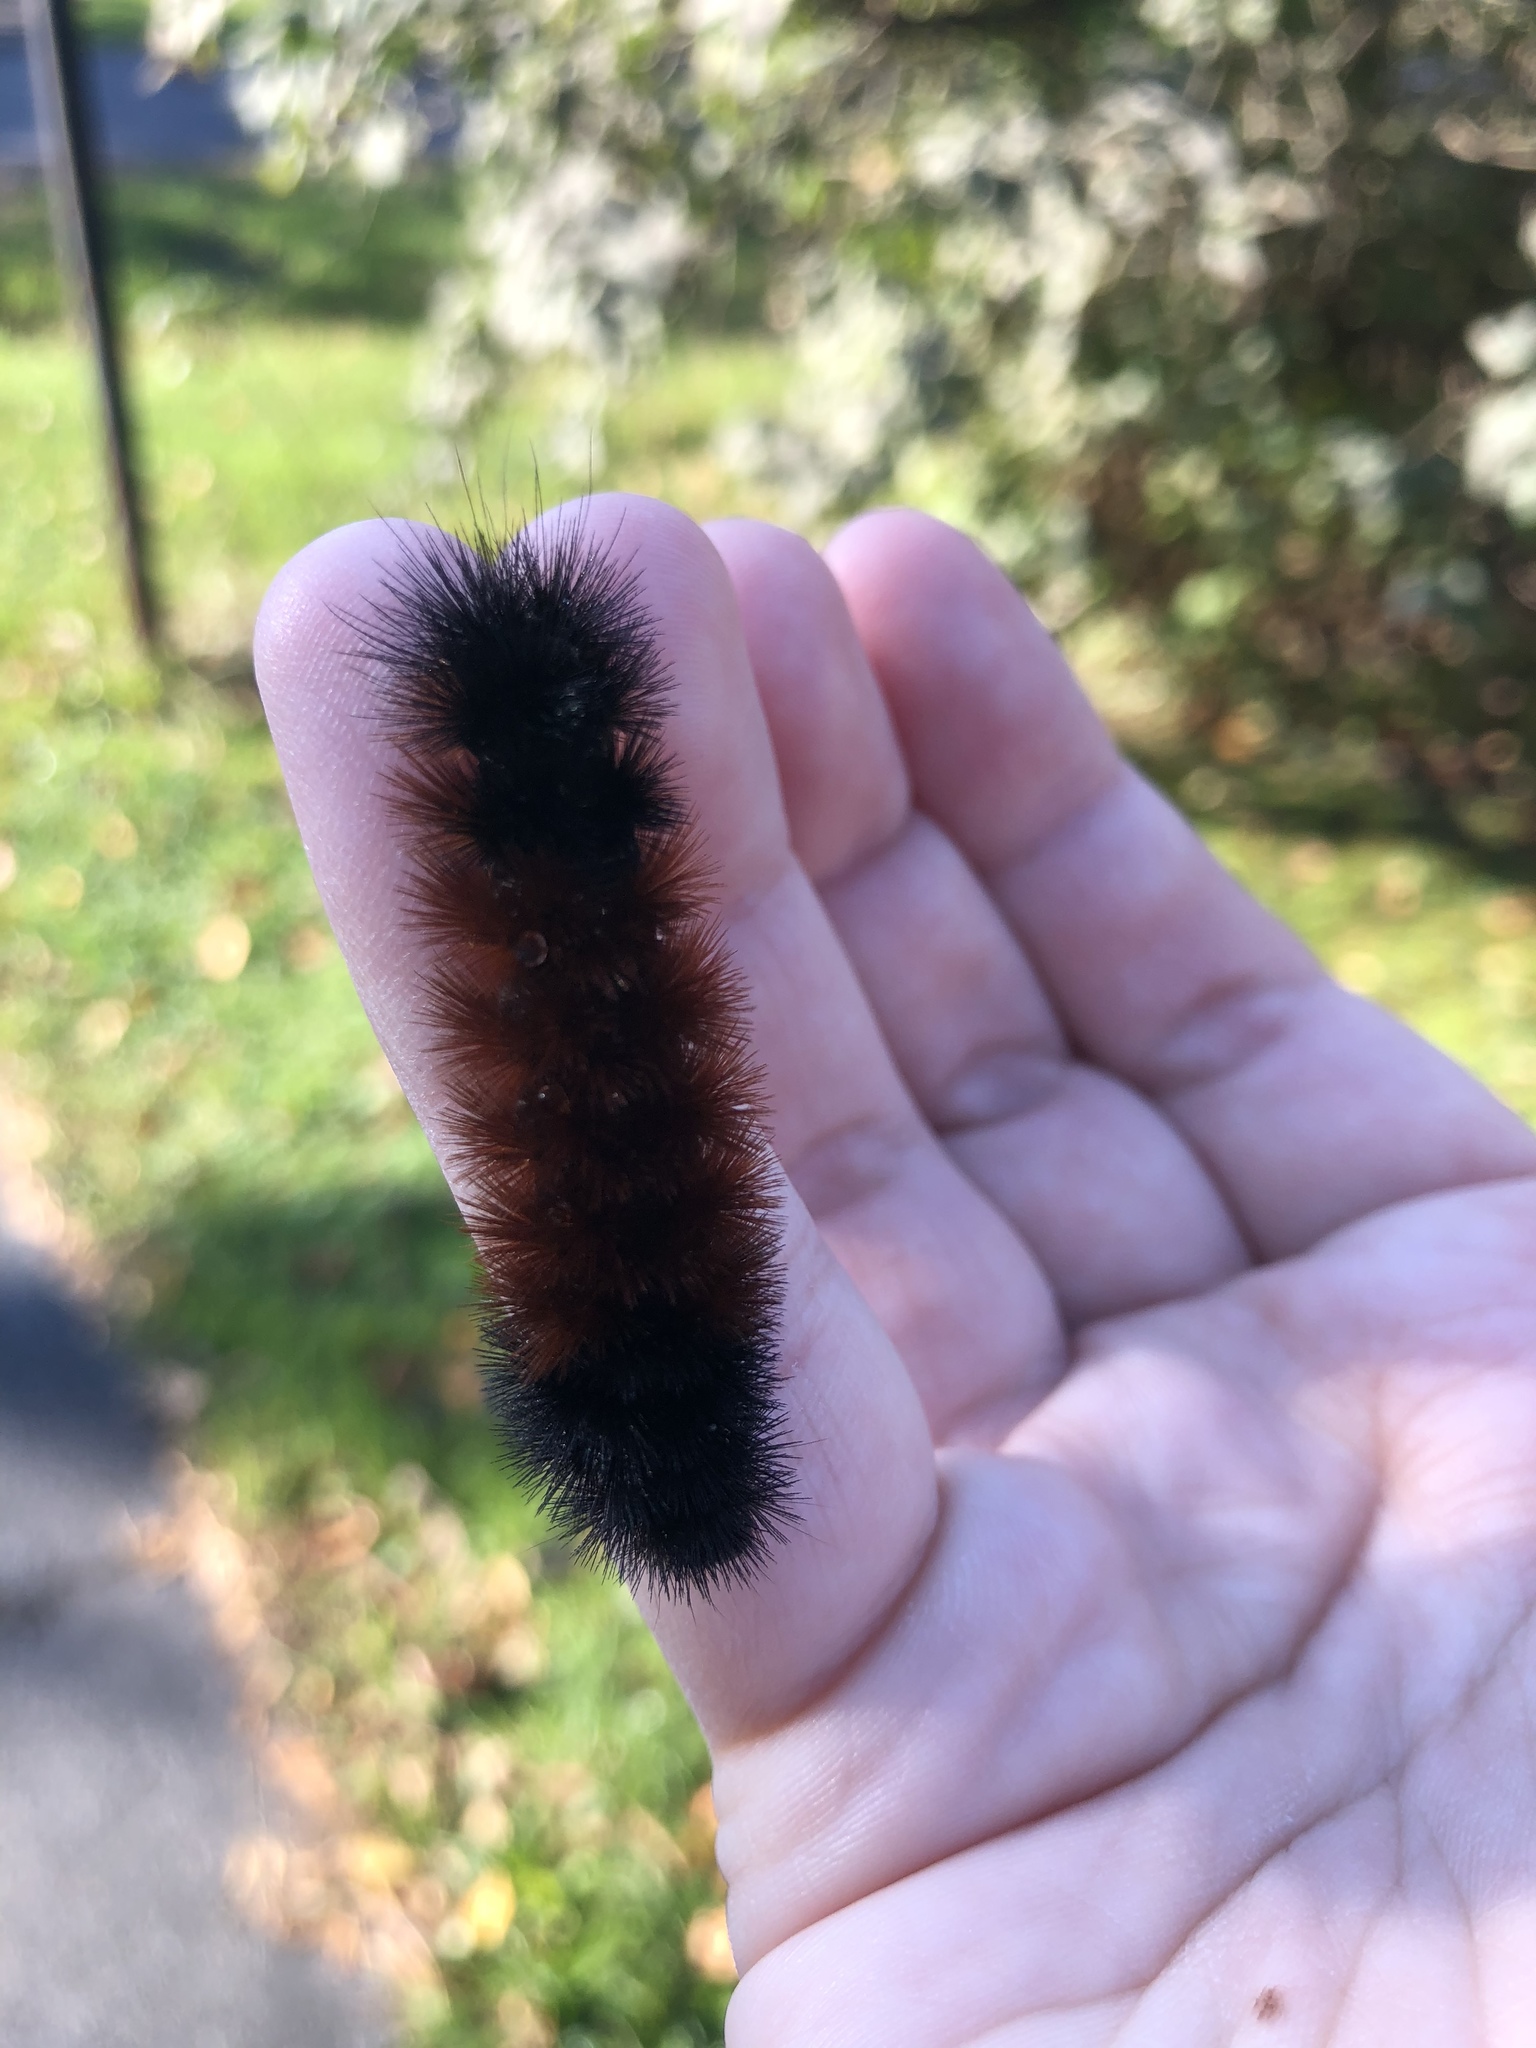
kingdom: Animalia
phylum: Arthropoda
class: Insecta
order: Lepidoptera
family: Erebidae
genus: Pyrrharctia
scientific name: Pyrrharctia isabella
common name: Isabella tiger moth
